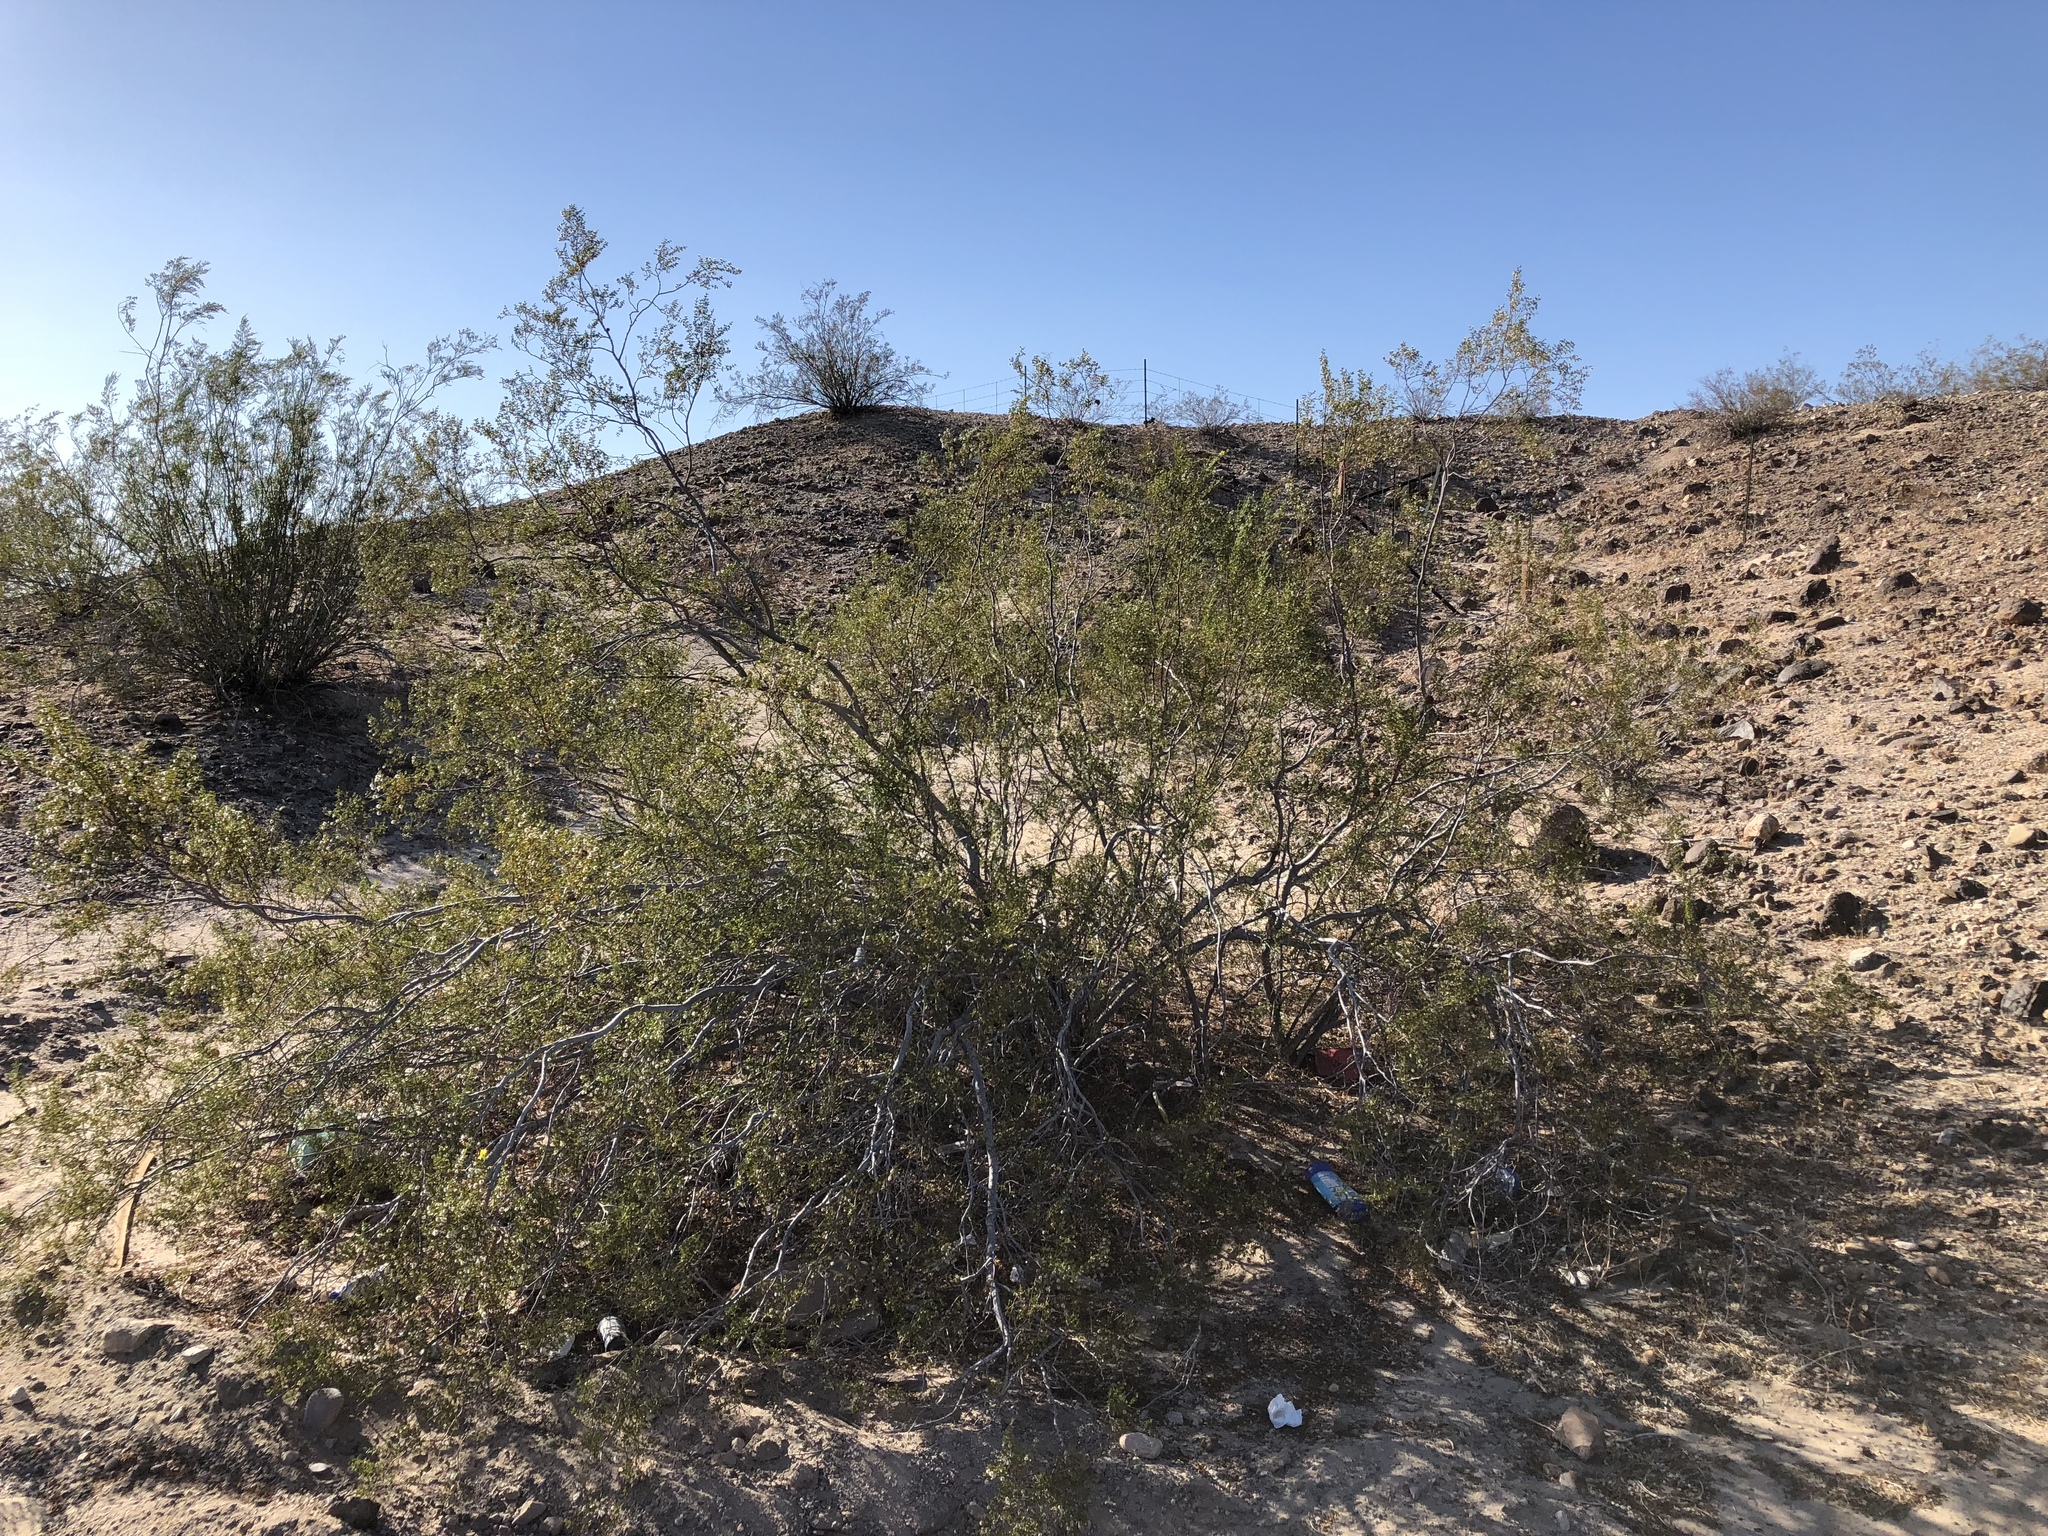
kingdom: Plantae
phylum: Tracheophyta
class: Magnoliopsida
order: Zygophyllales
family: Zygophyllaceae
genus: Larrea
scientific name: Larrea tridentata
